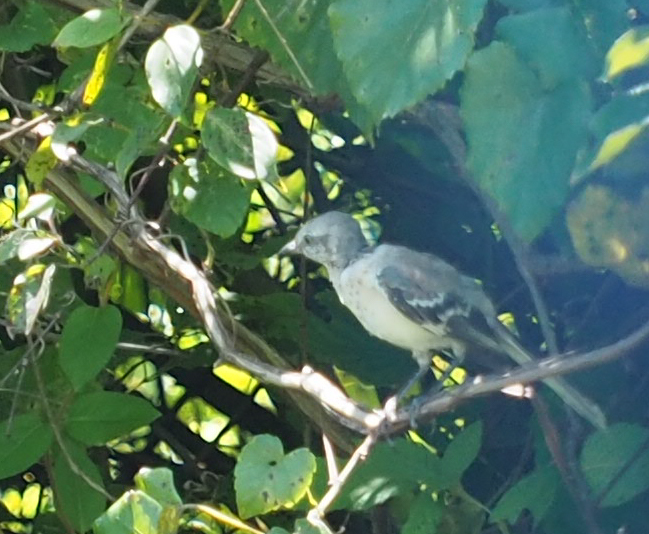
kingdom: Animalia
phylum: Chordata
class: Aves
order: Passeriformes
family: Mimidae
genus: Mimus
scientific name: Mimus polyglottos
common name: Northern mockingbird
